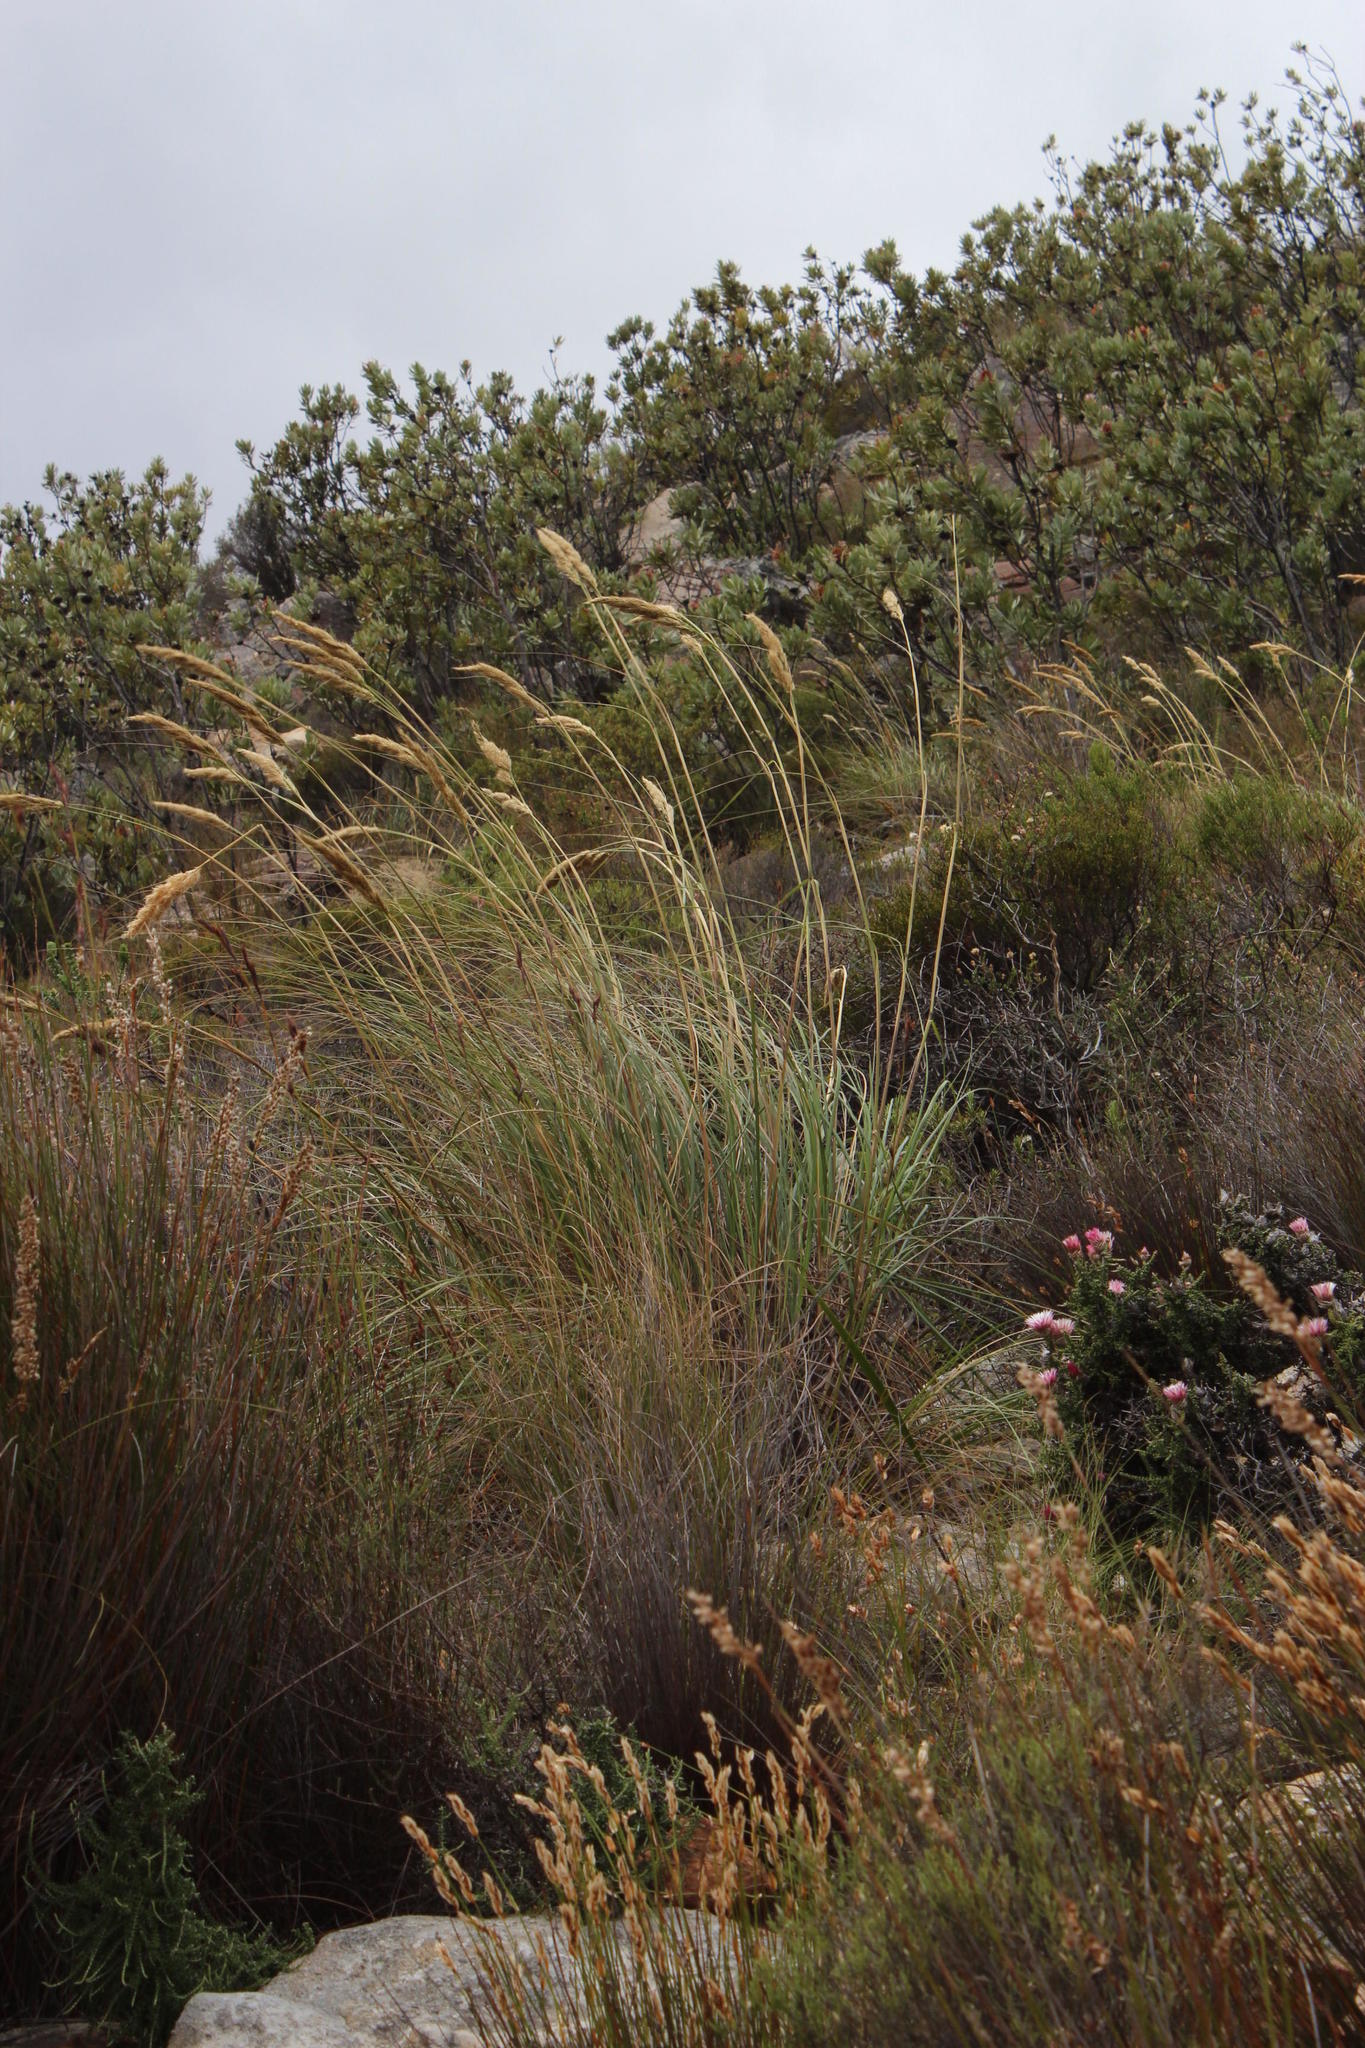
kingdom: Plantae
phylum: Tracheophyta
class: Liliopsida
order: Poales
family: Poaceae
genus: Capeochloa
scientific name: Capeochloa arundinacea
